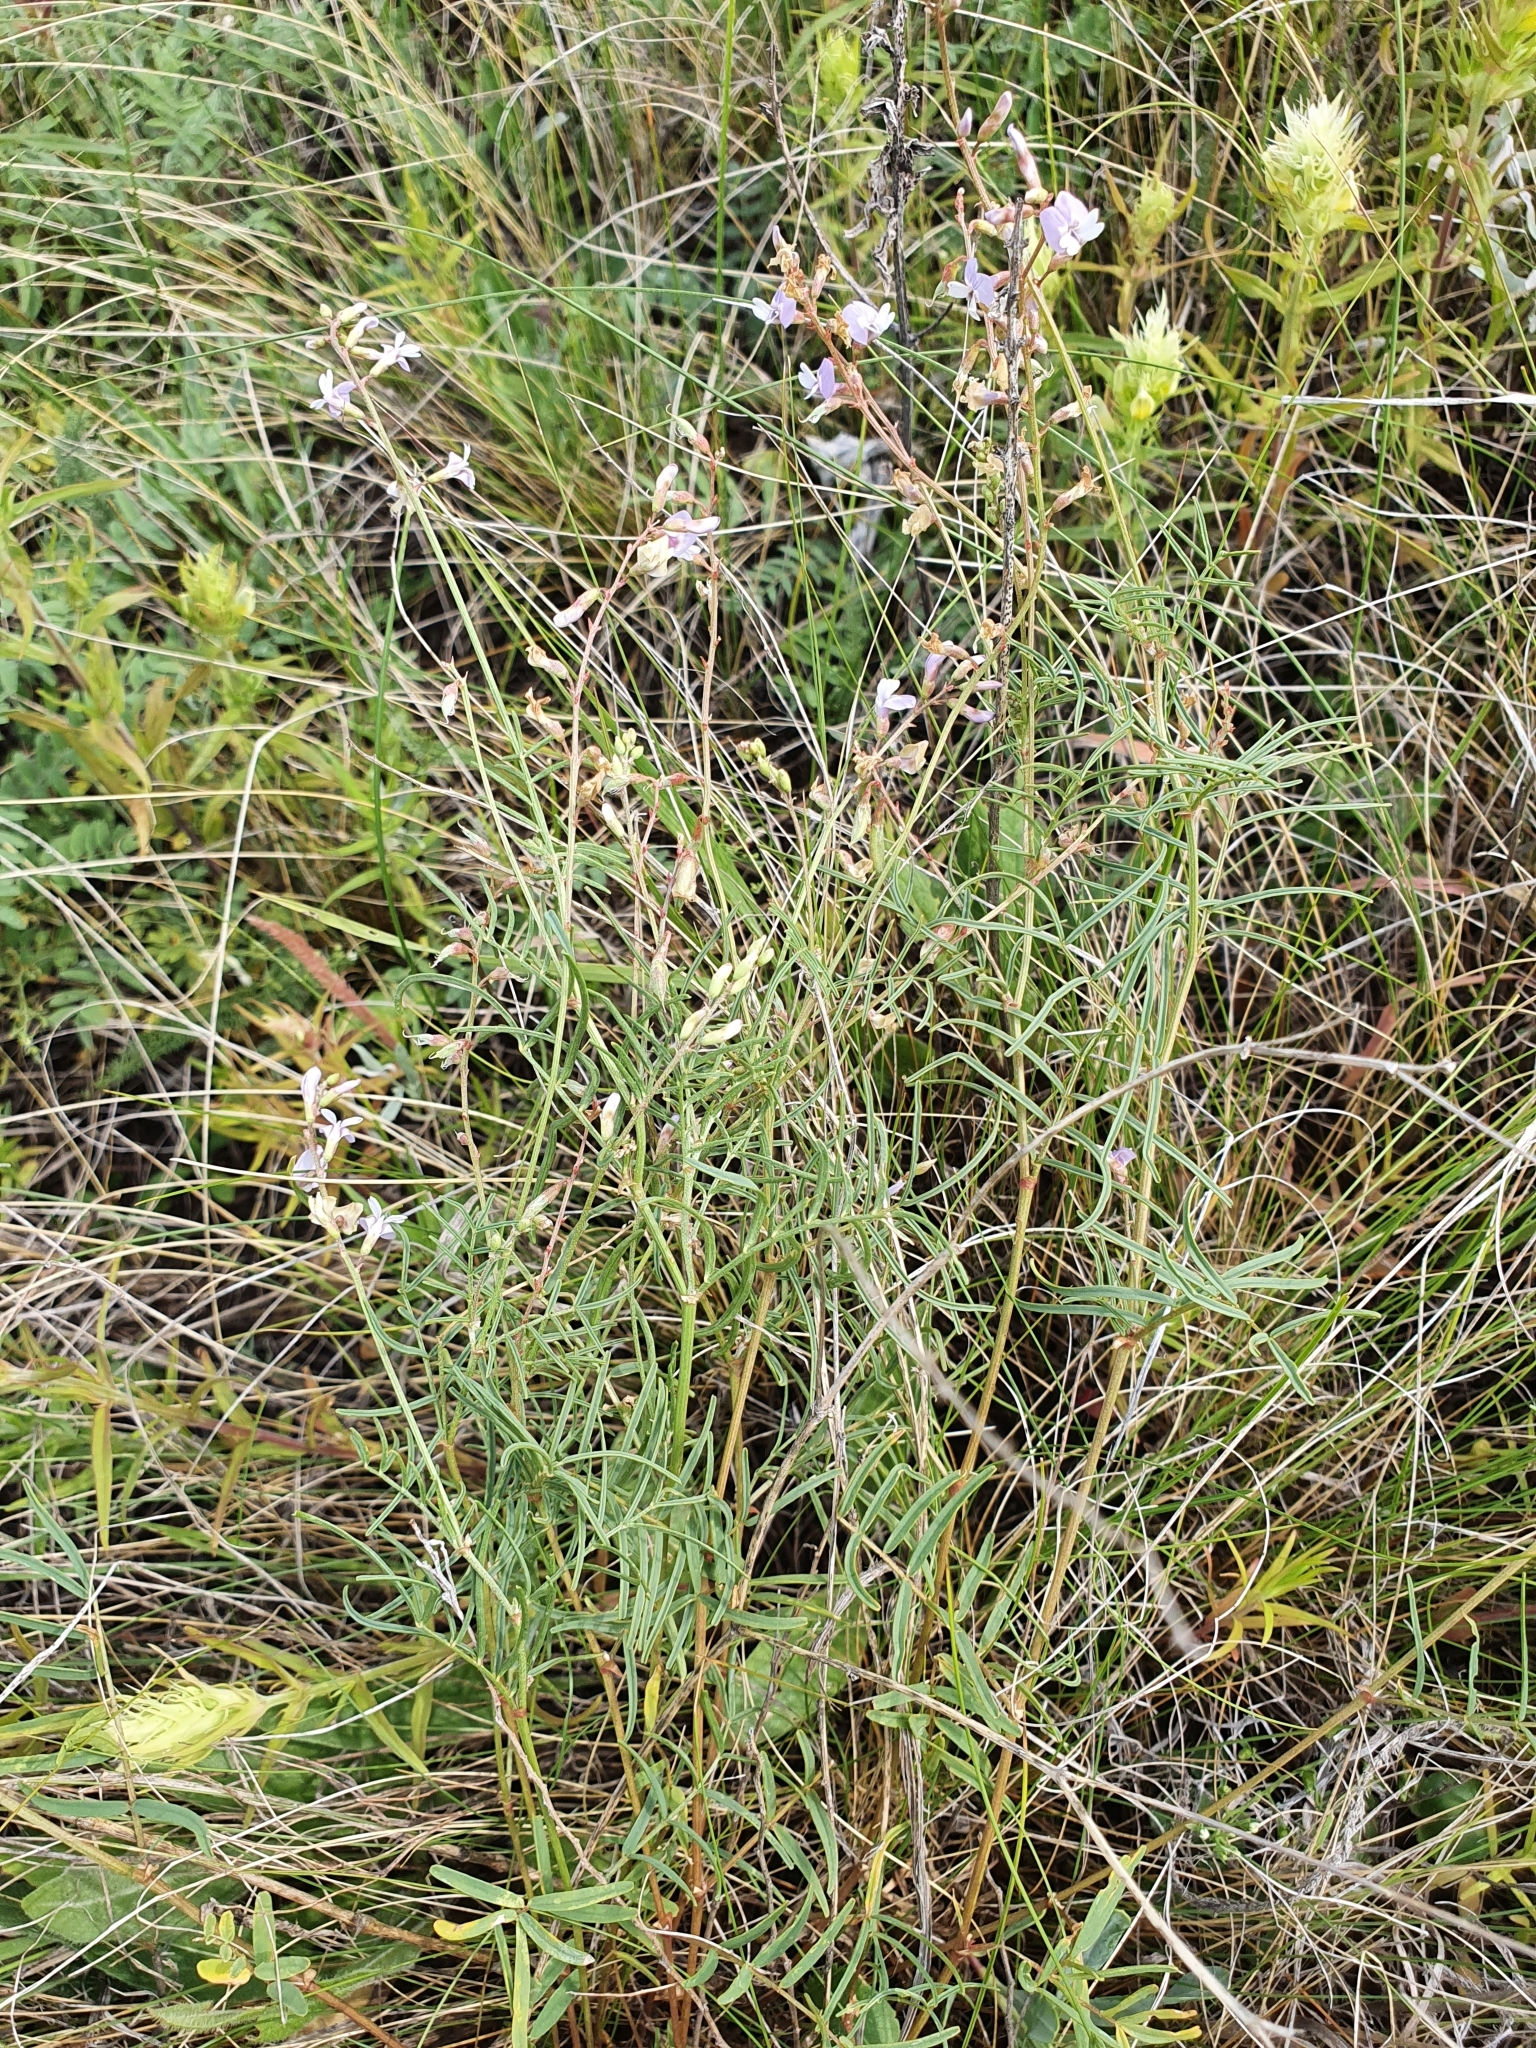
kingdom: Plantae
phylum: Tracheophyta
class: Magnoliopsida
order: Fabales
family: Fabaceae
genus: Astragalus
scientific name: Astragalus austriacus
